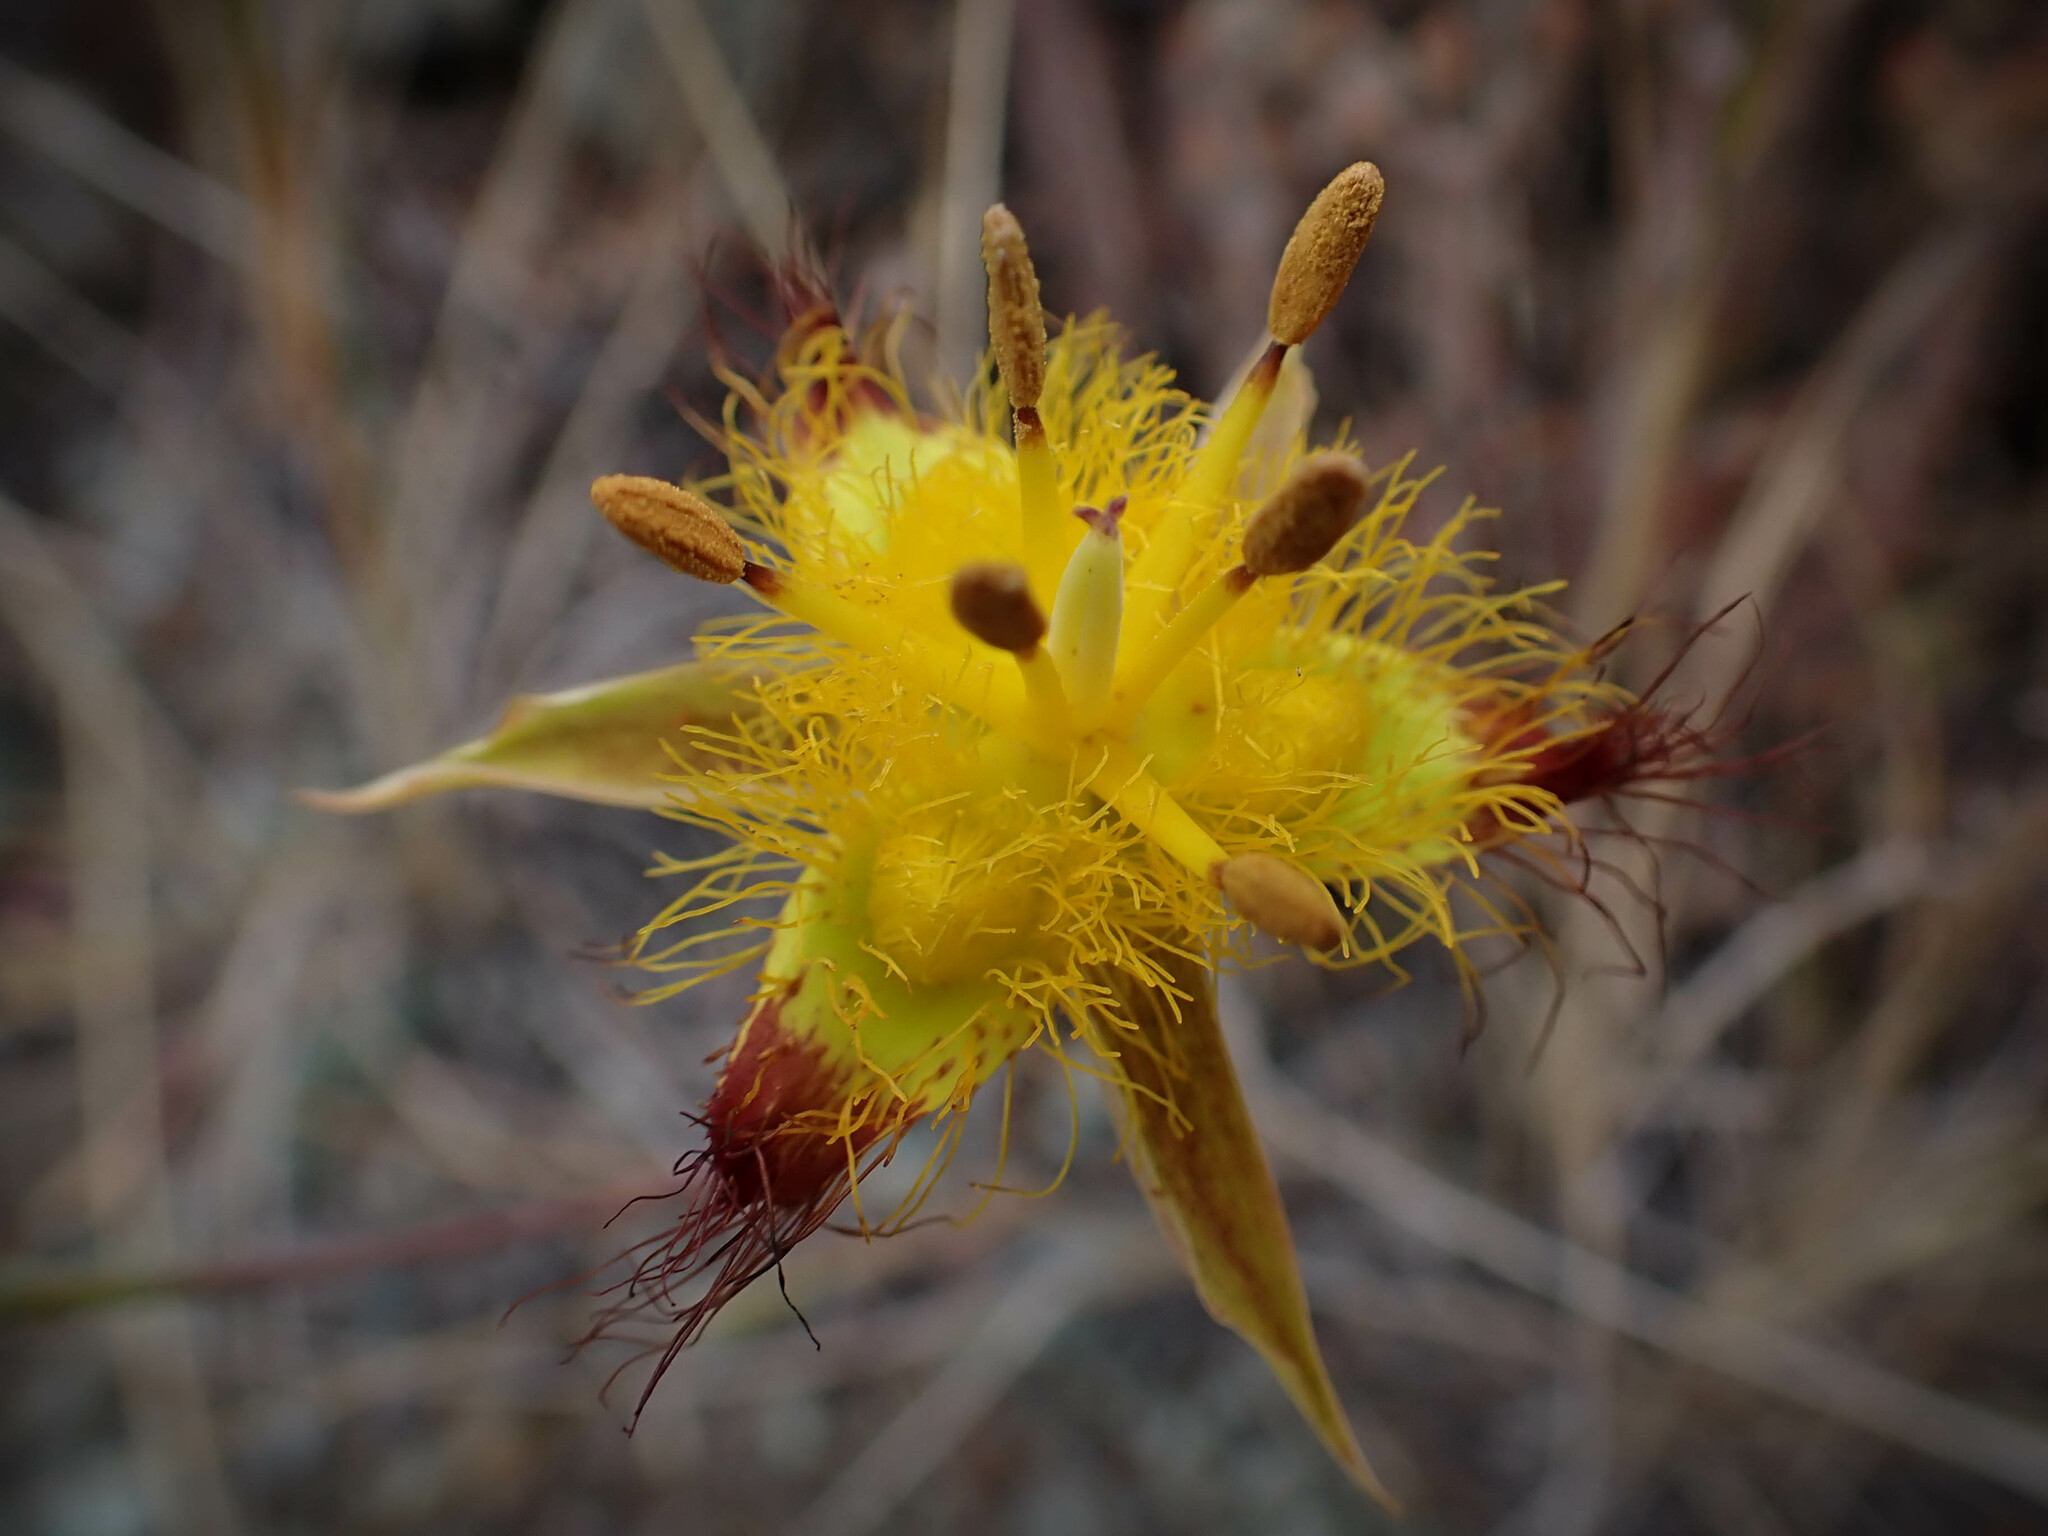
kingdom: Plantae
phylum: Tracheophyta
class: Liliopsida
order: Liliales
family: Liliaceae
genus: Calochortus
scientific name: Calochortus obispoensis
